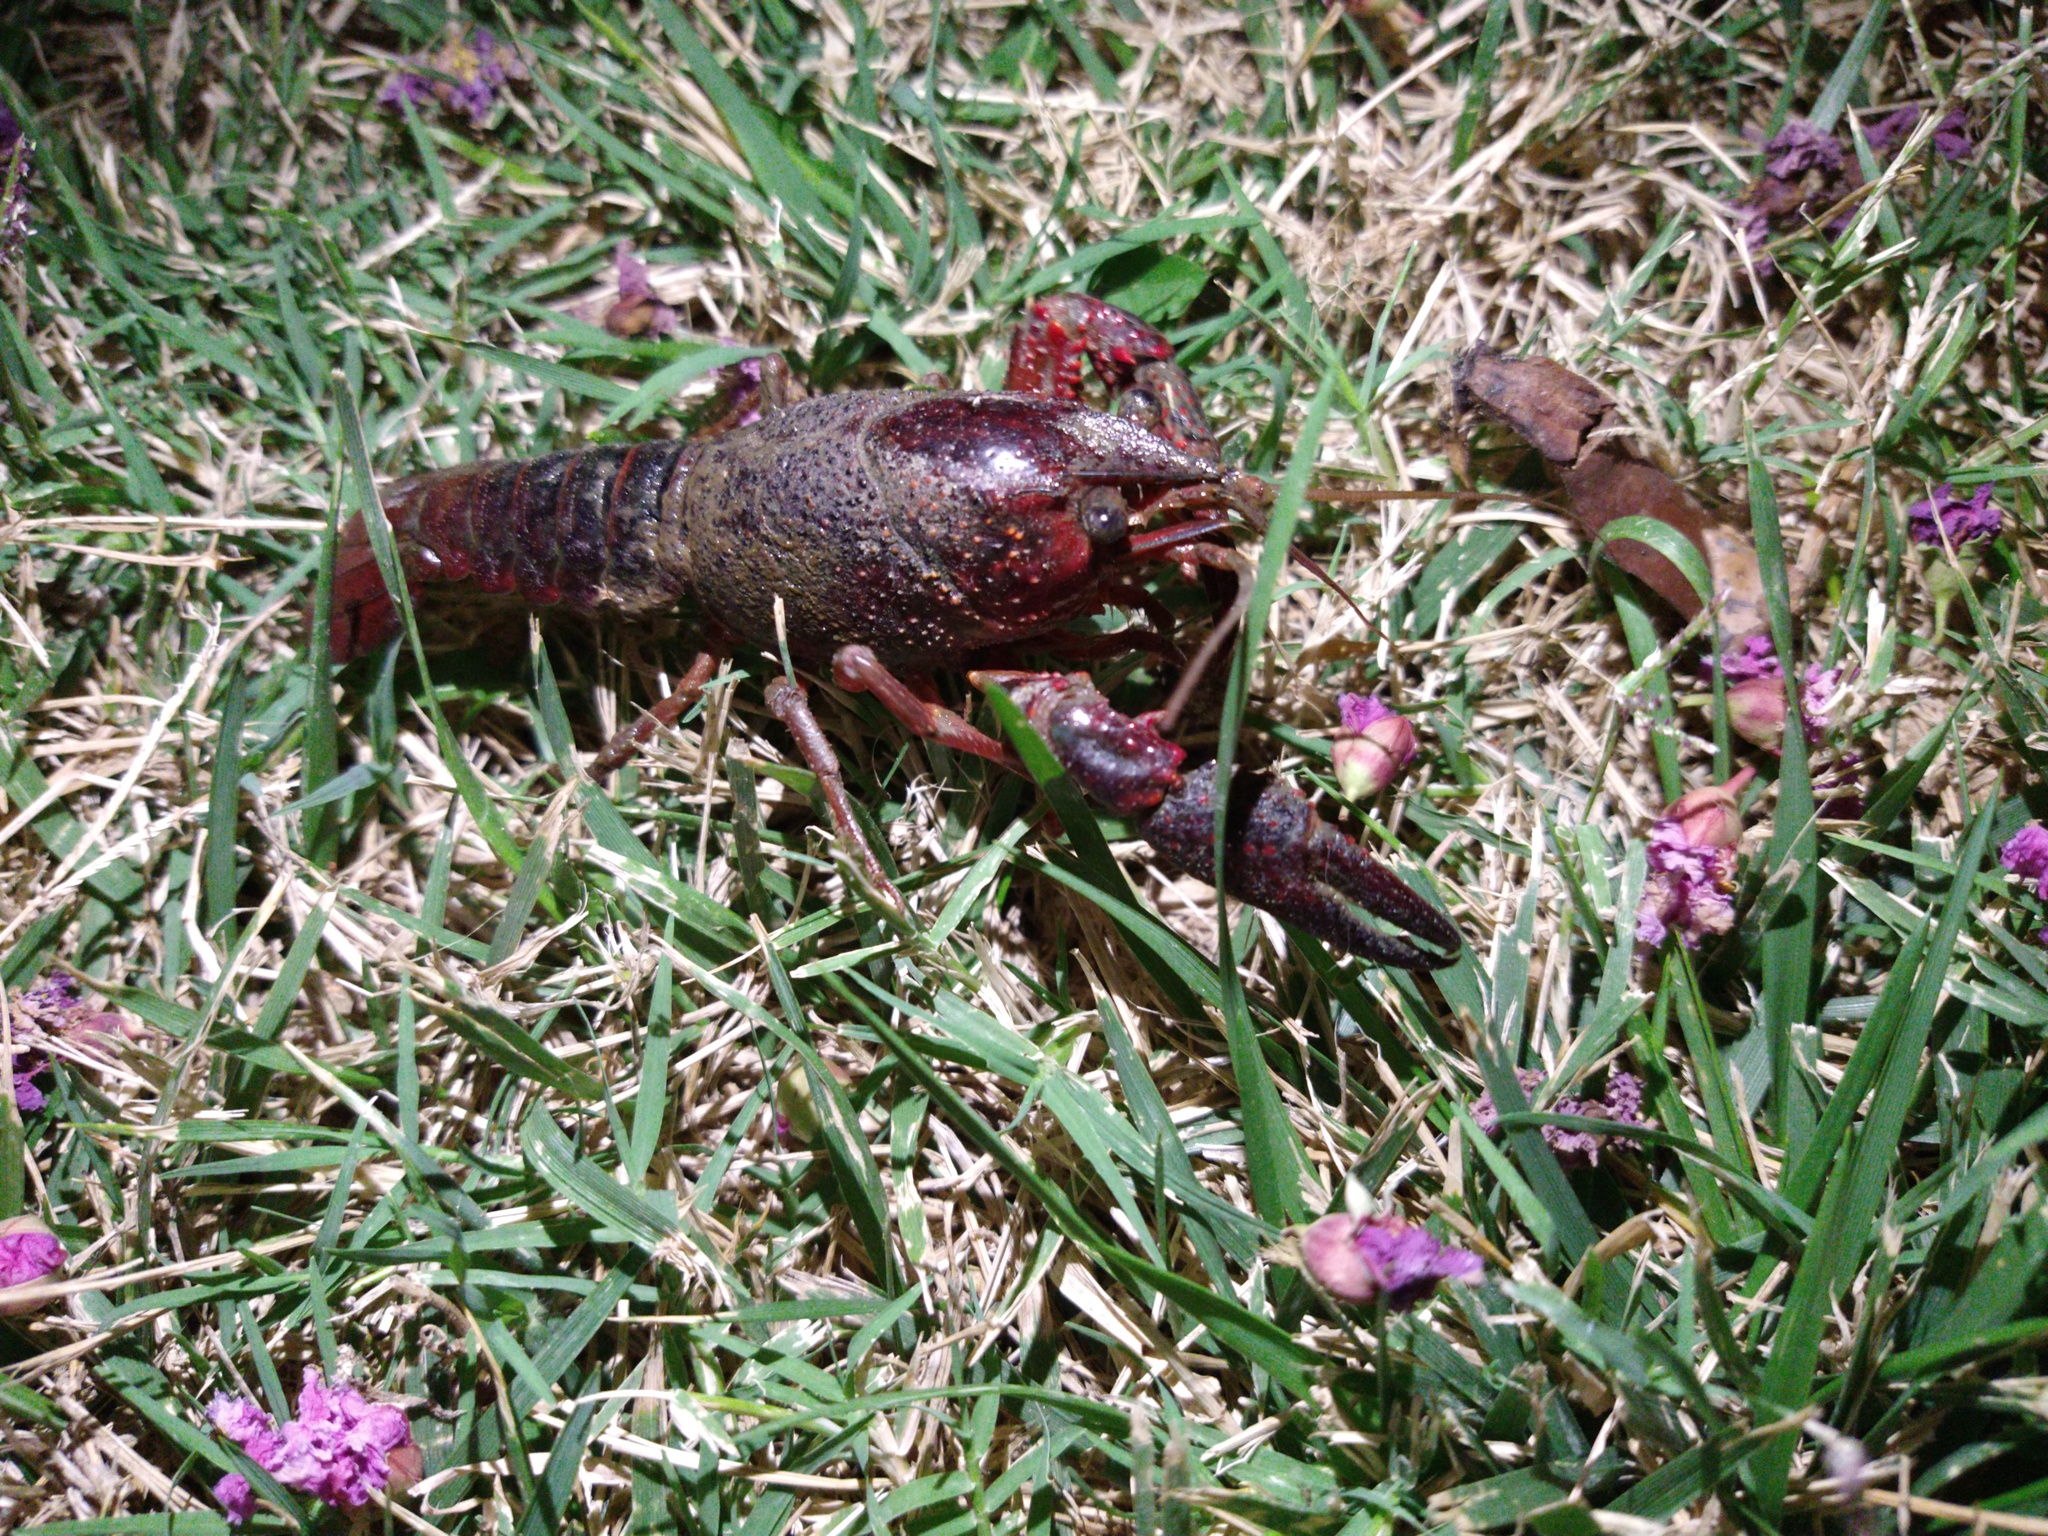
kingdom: Animalia
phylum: Arthropoda
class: Malacostraca
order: Decapoda
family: Cambaridae
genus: Procambarus
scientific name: Procambarus clarkii
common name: Red swamp crayfish
